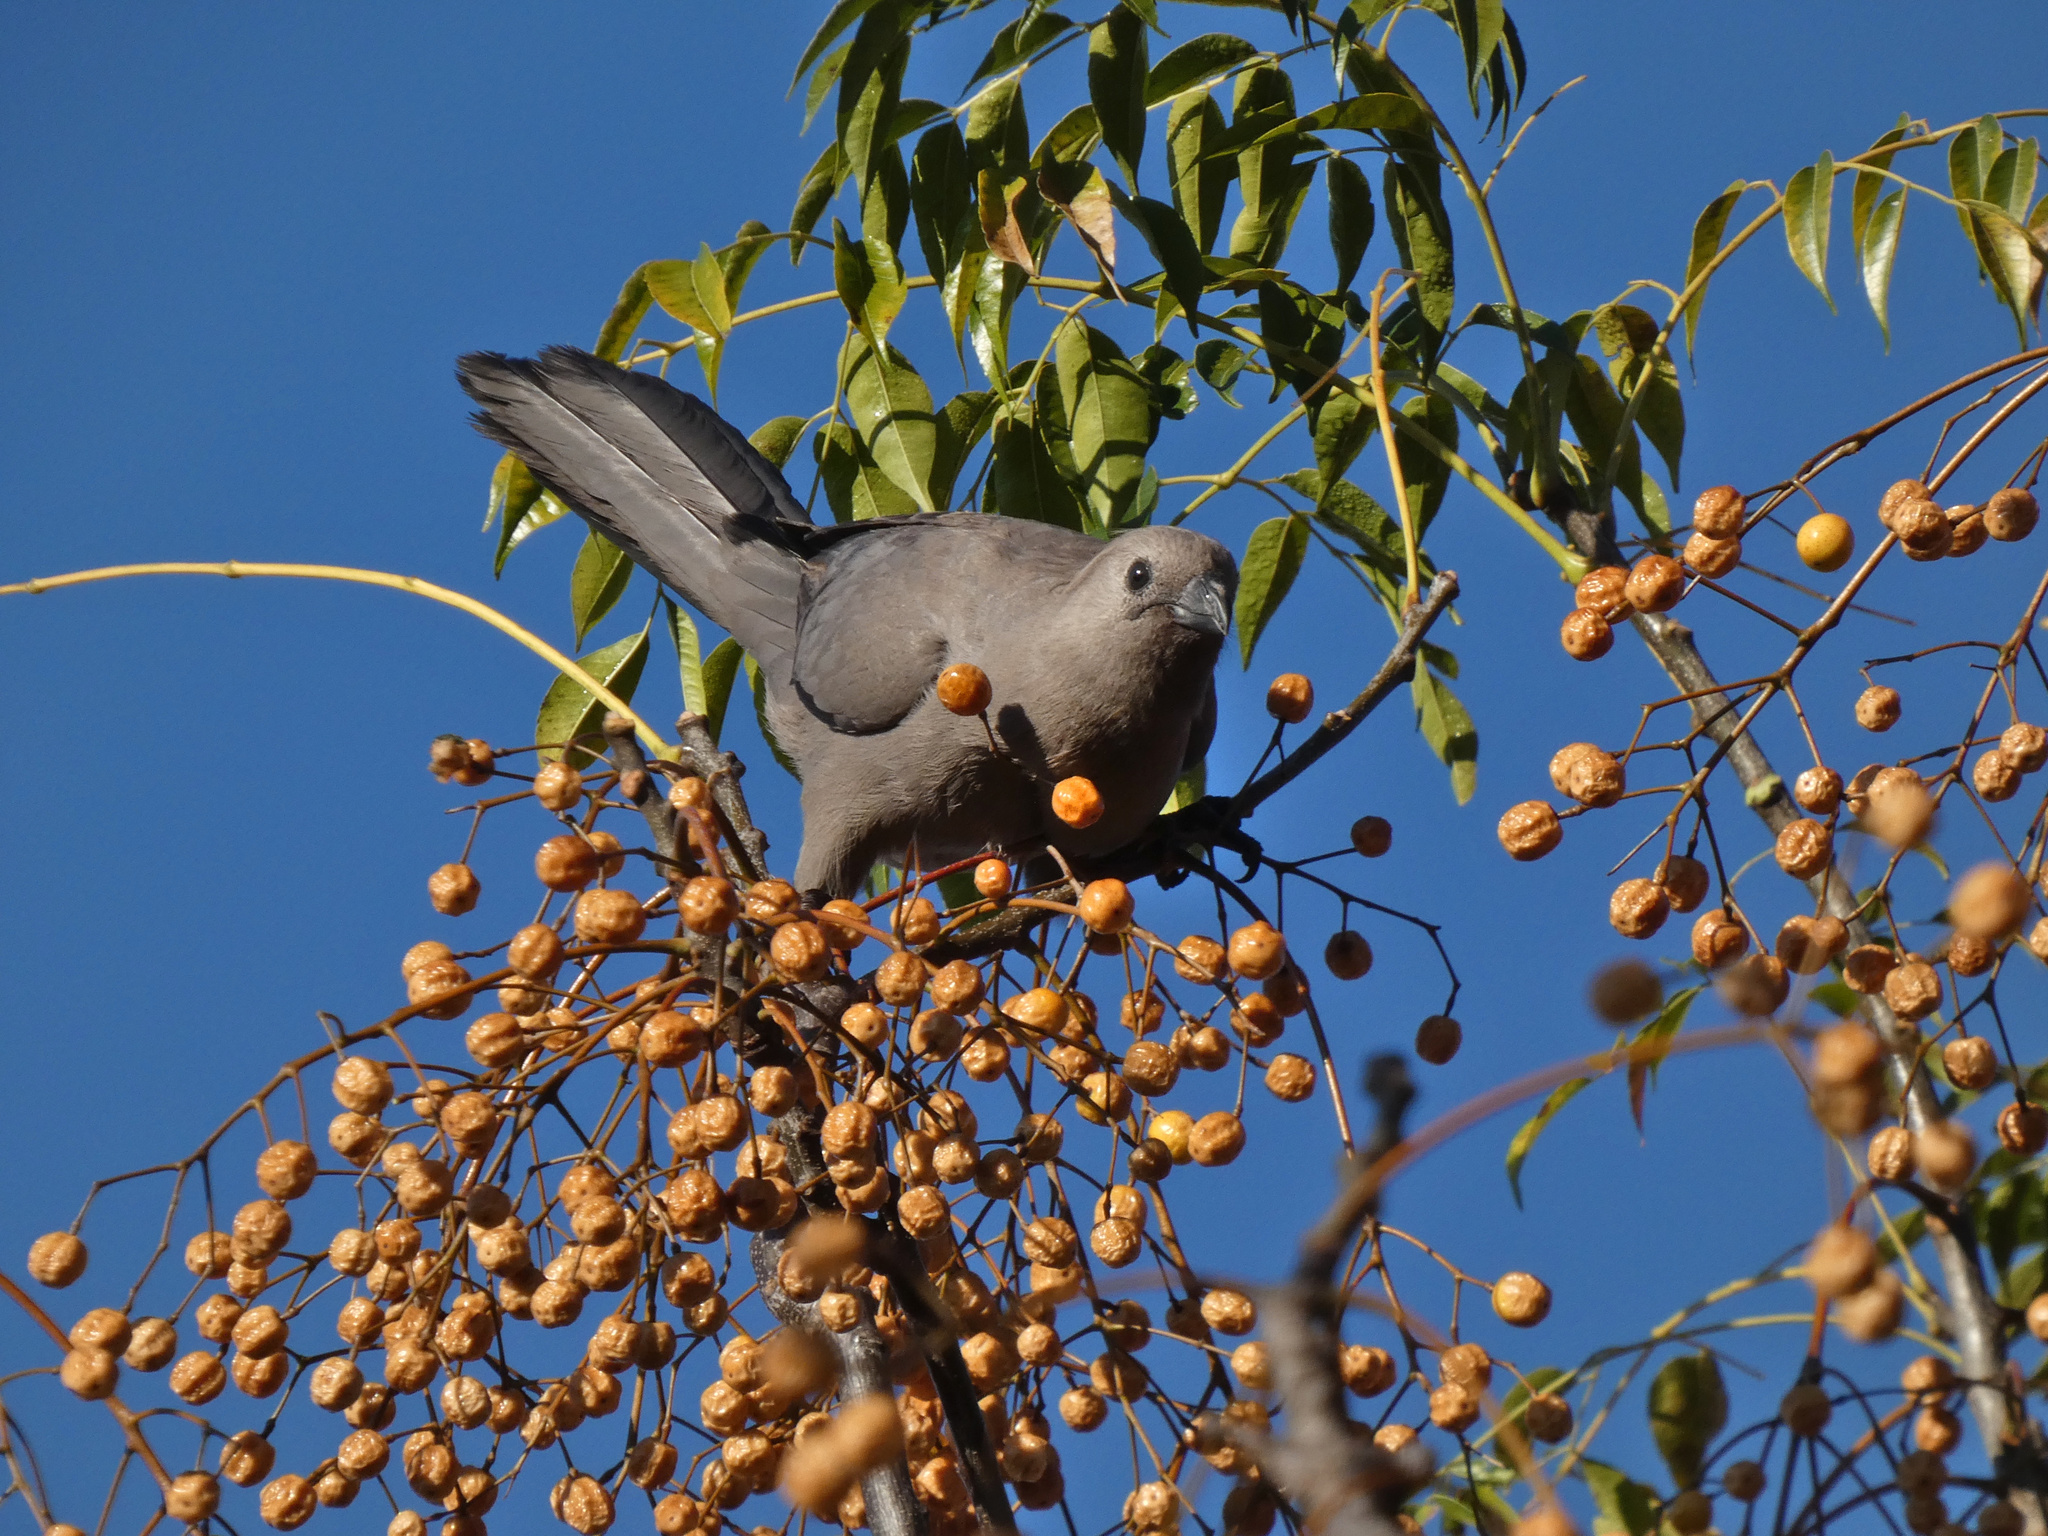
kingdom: Animalia
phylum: Chordata
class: Aves
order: Musophagiformes
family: Musophagidae
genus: Corythaixoides
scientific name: Corythaixoides concolor
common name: Grey go-away-bird
